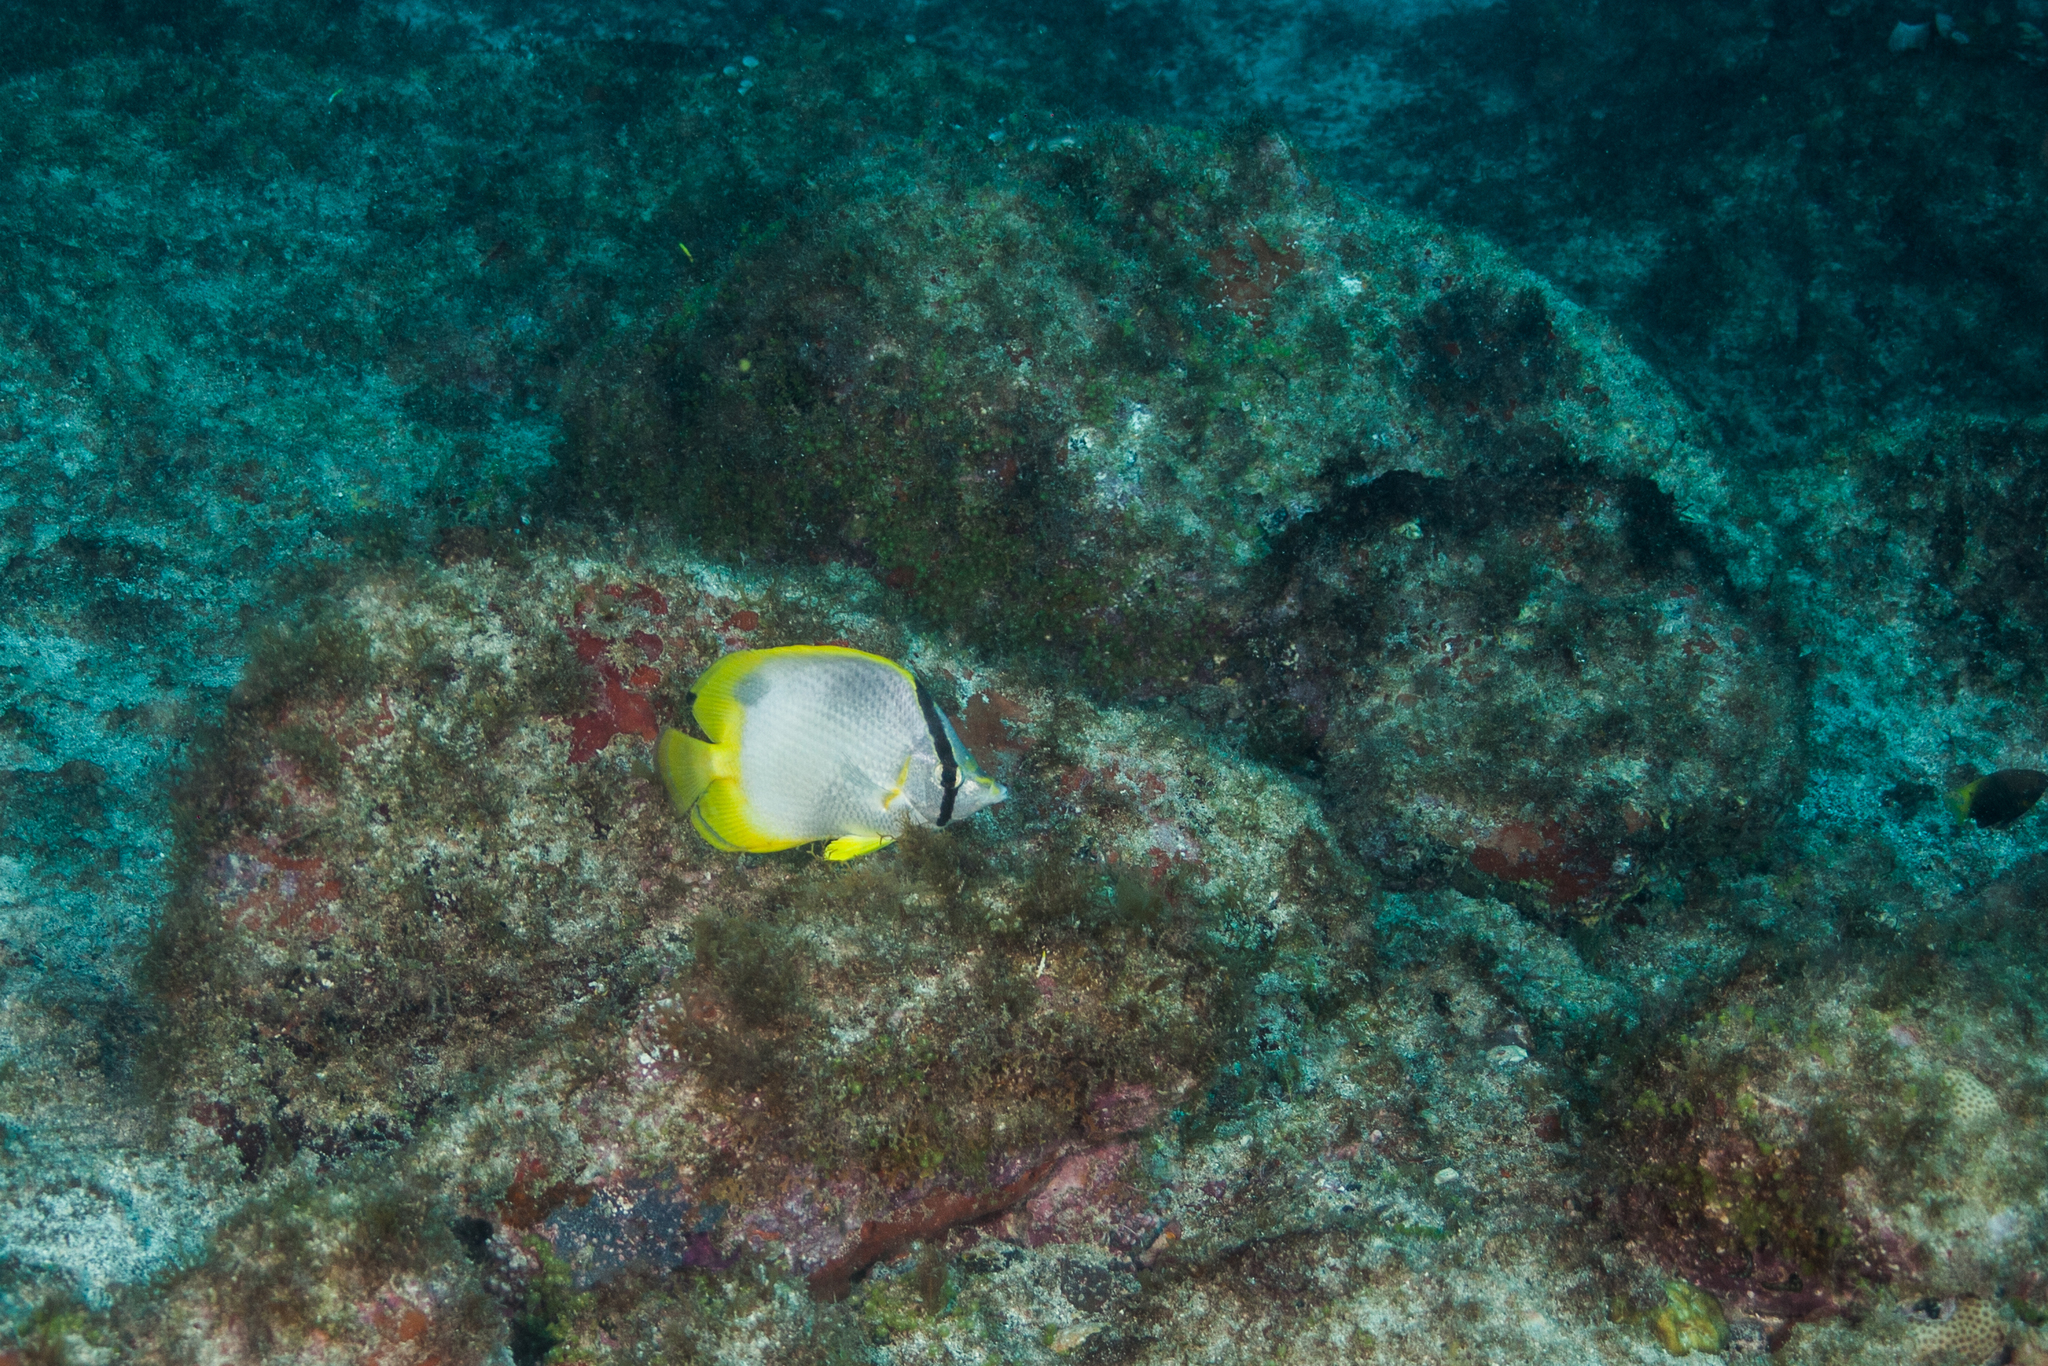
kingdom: Animalia
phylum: Chordata
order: Perciformes
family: Chaetodontidae
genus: Chaetodon
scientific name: Chaetodon ocellatus
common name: Spotfin butterflyfish
